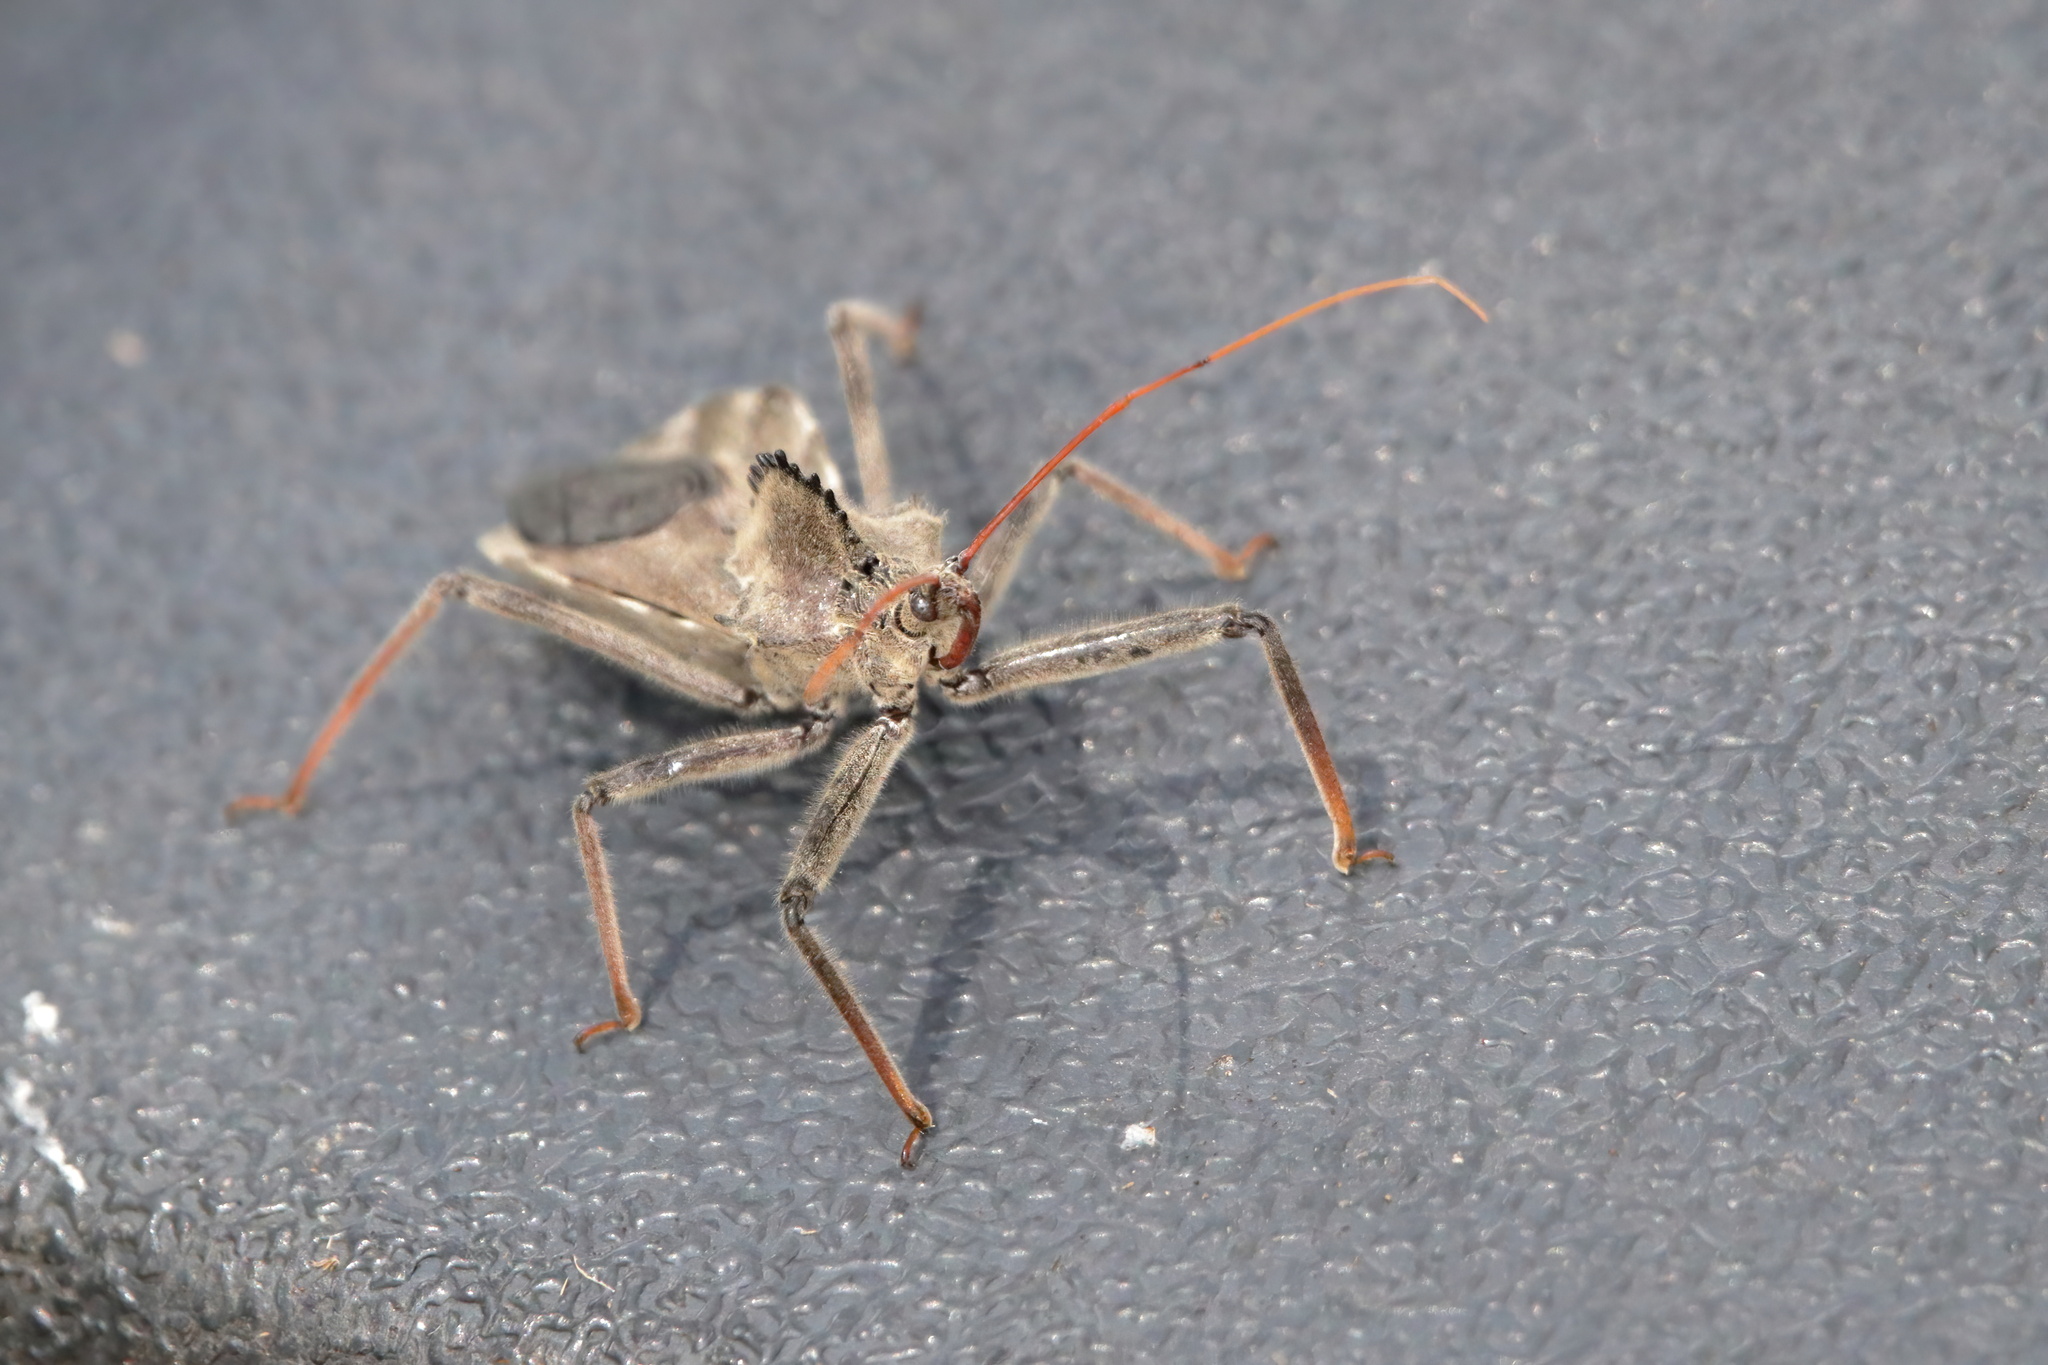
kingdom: Animalia
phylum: Arthropoda
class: Insecta
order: Hemiptera
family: Reduviidae
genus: Arilus
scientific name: Arilus cristatus
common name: North american wheel bug
